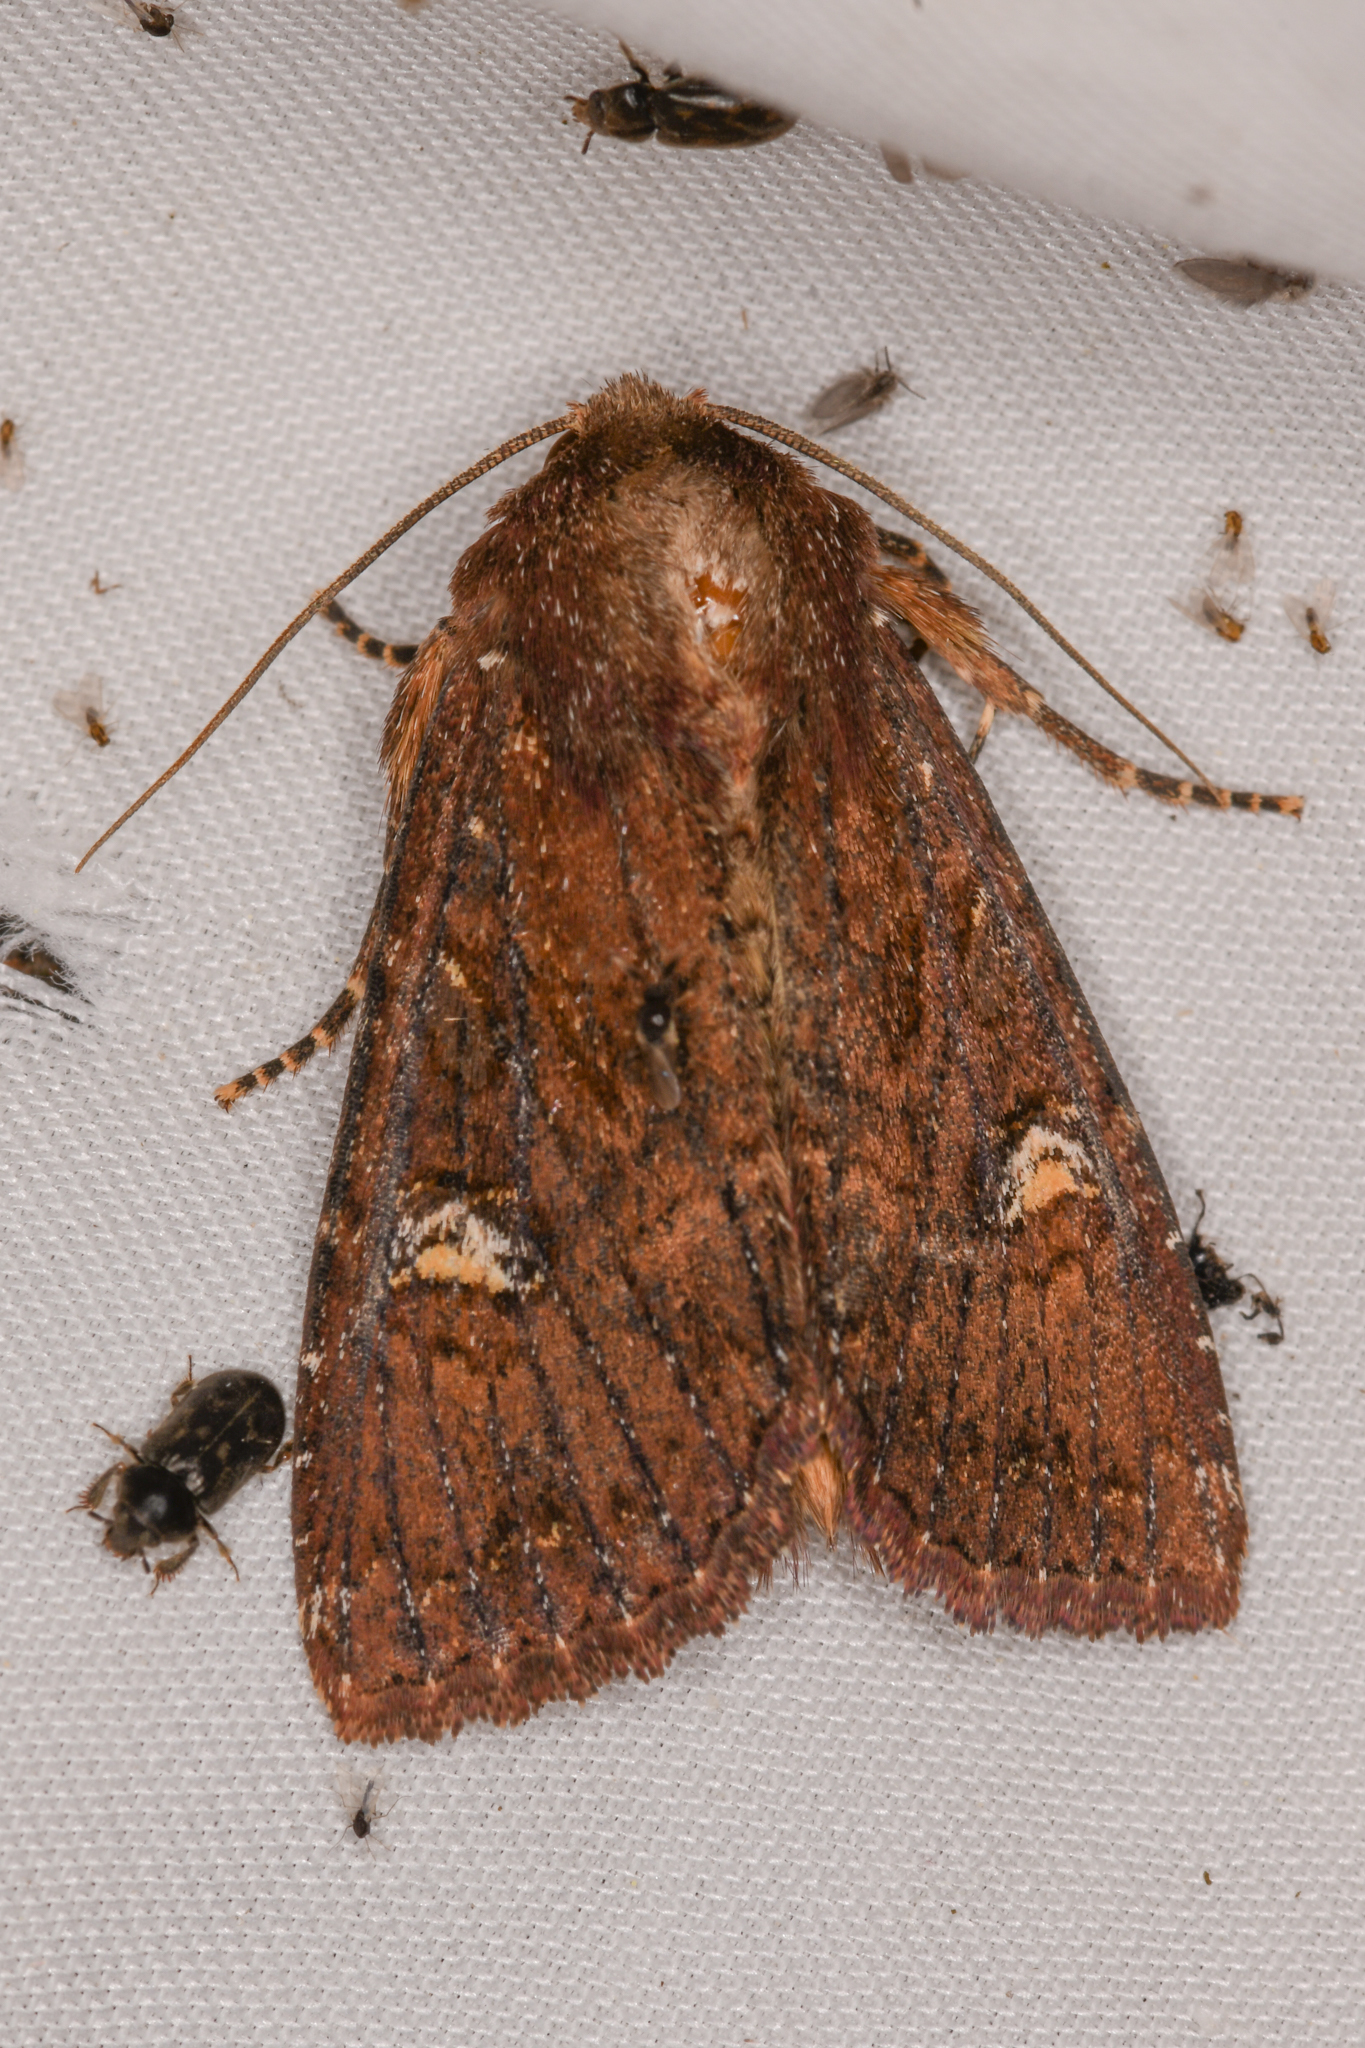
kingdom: Animalia
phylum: Arthropoda
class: Insecta
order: Lepidoptera
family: Noctuidae
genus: Apamea
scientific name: Apamea cogitata
